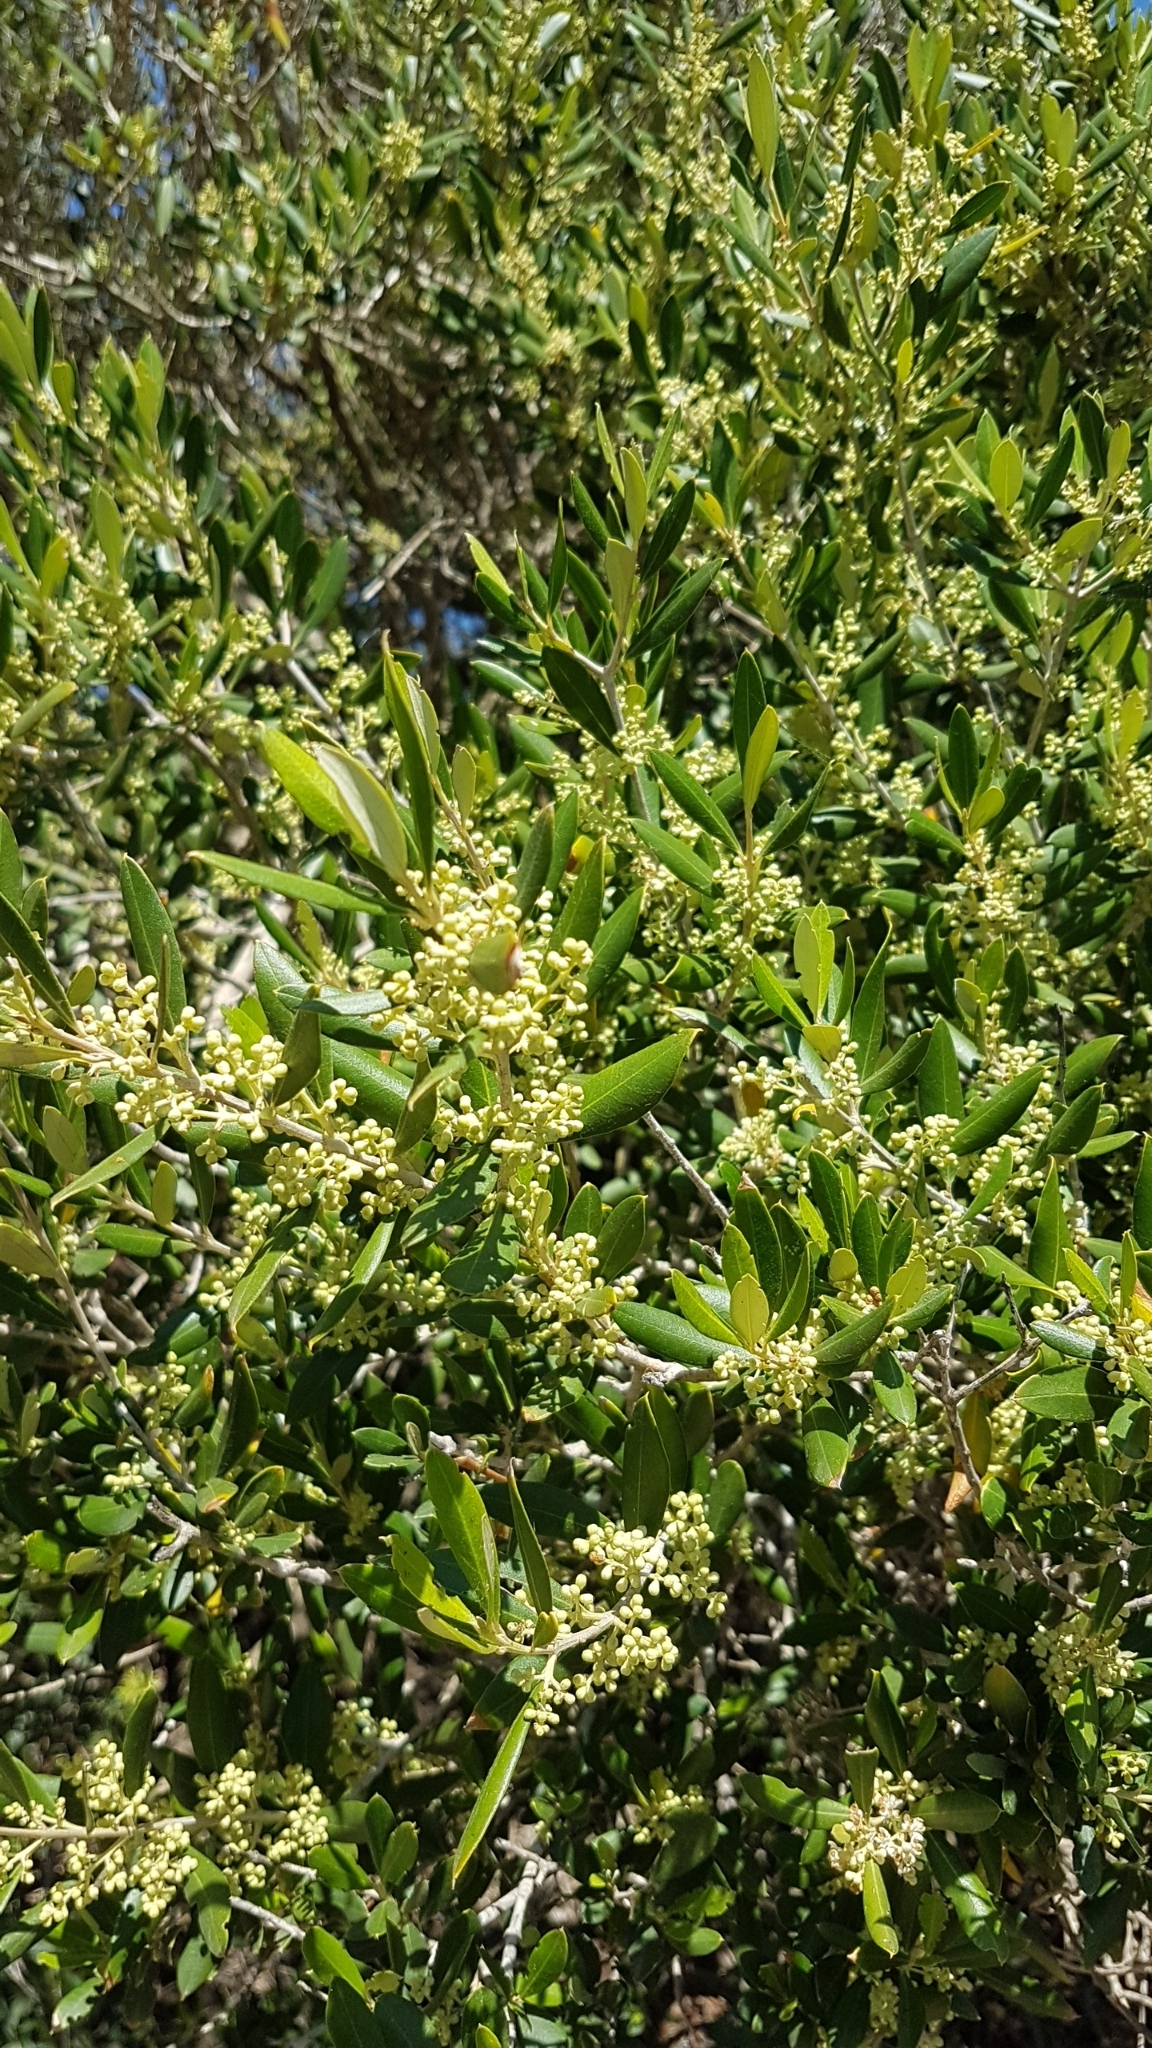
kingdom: Plantae
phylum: Tracheophyta
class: Magnoliopsida
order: Lamiales
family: Oleaceae
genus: Olea
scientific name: Olea europaea
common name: Olive
